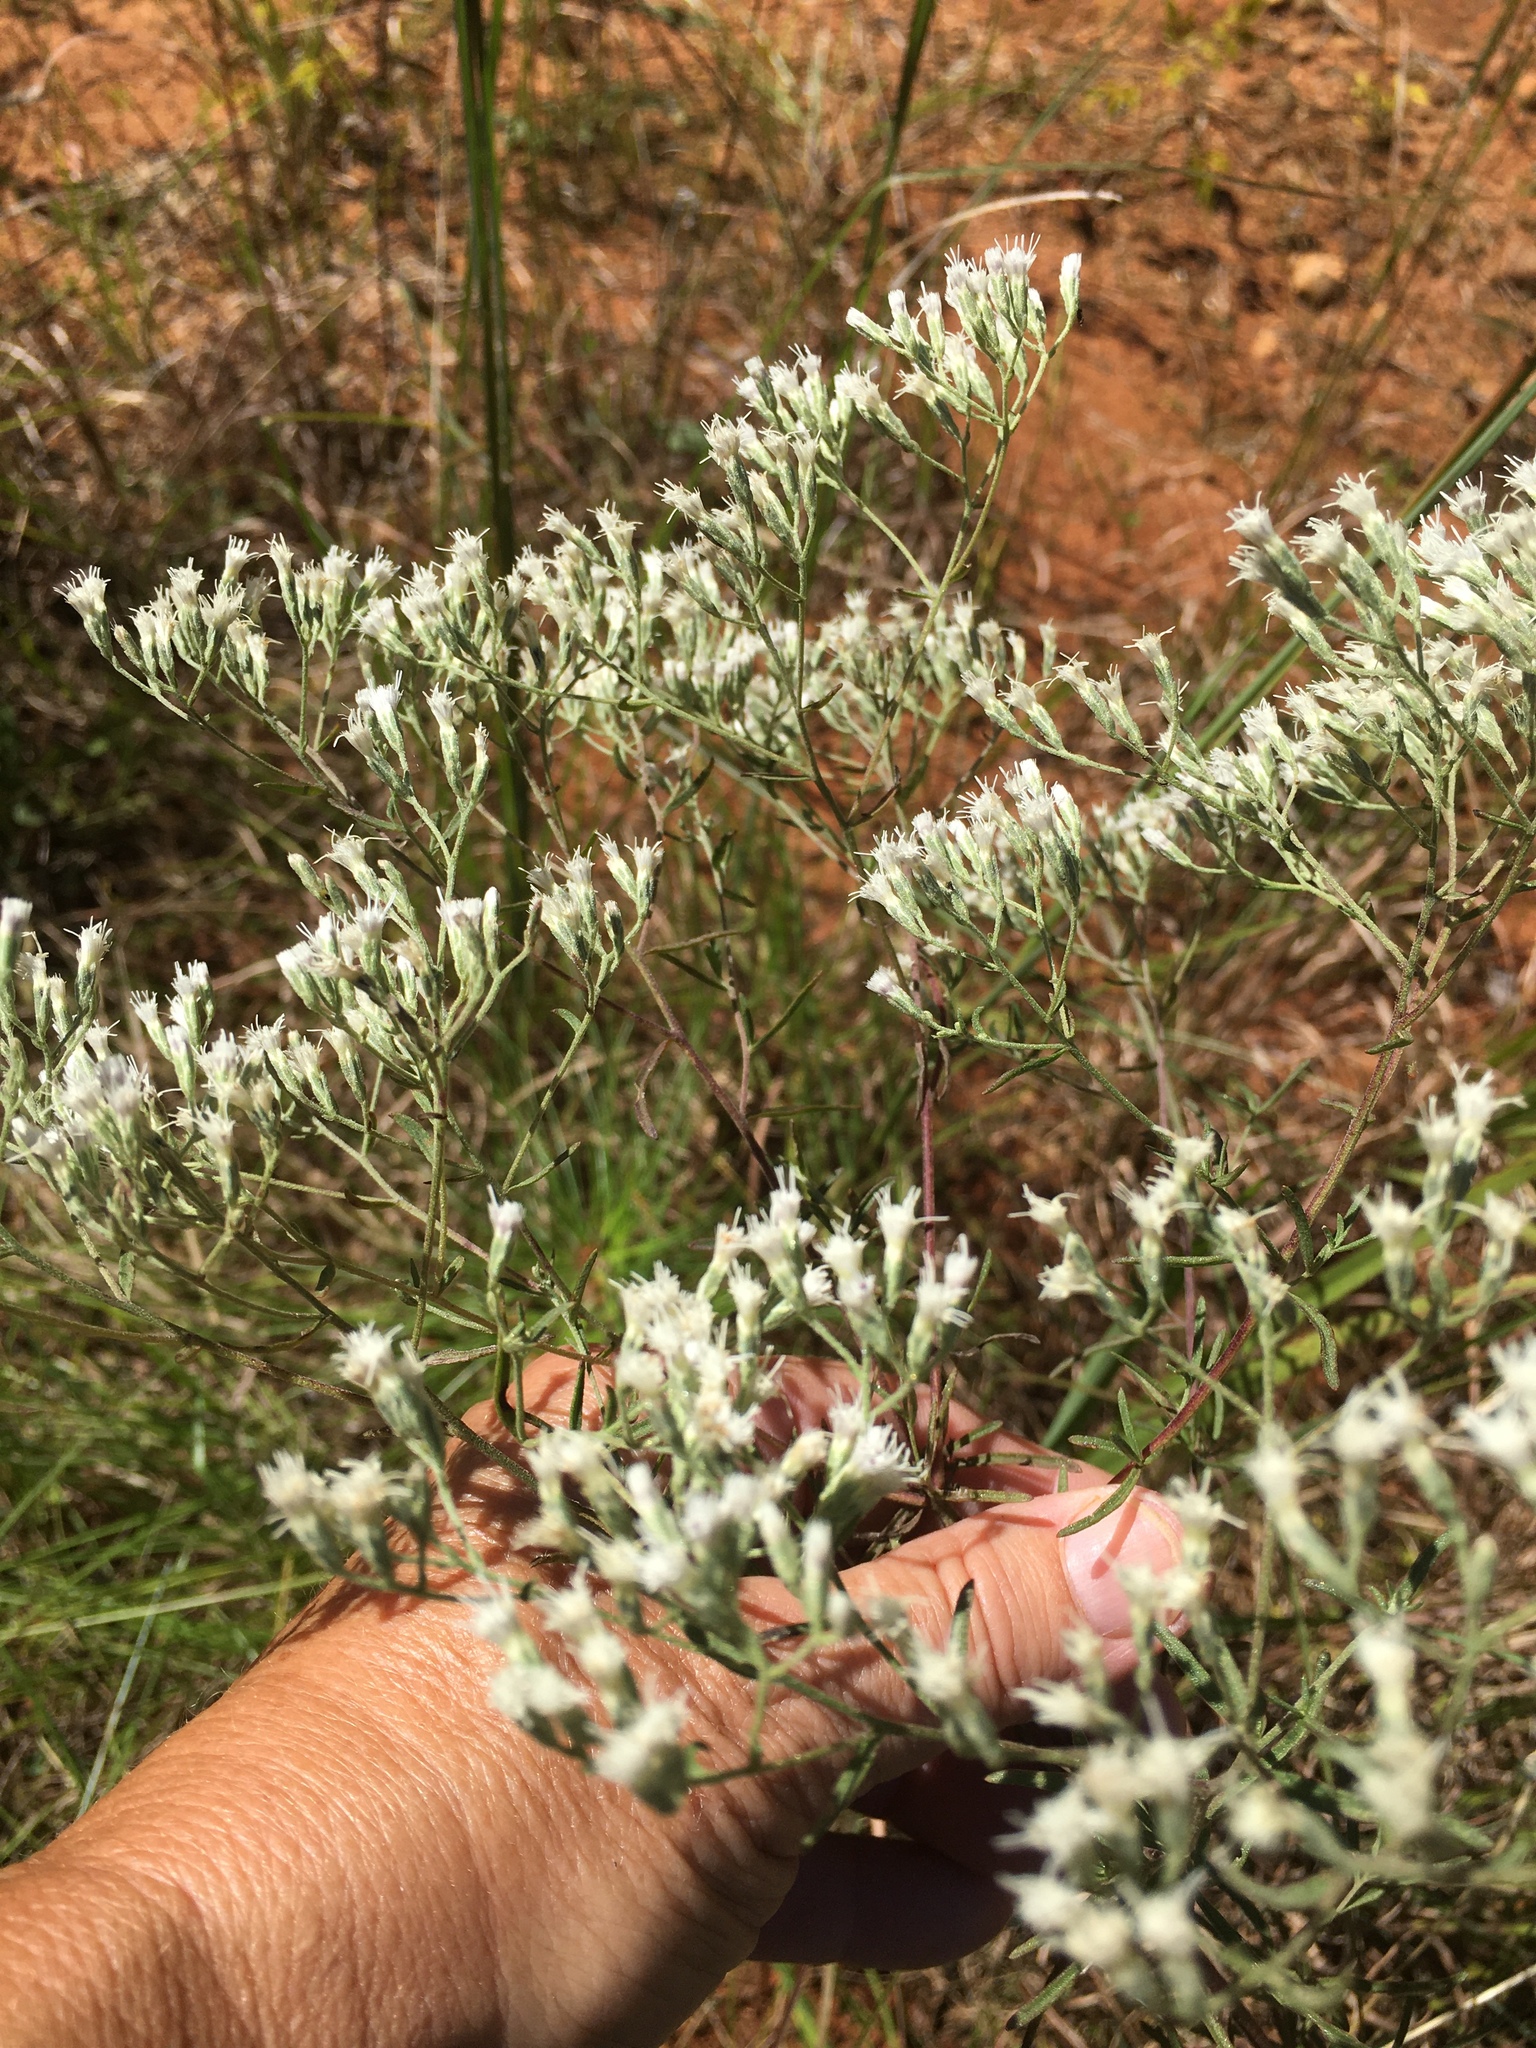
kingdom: Plantae
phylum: Tracheophyta
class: Magnoliopsida
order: Asterales
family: Asteraceae
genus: Eupatorium
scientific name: Eupatorium hyssopifolium
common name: Hyssop-leaf thoroughwort
